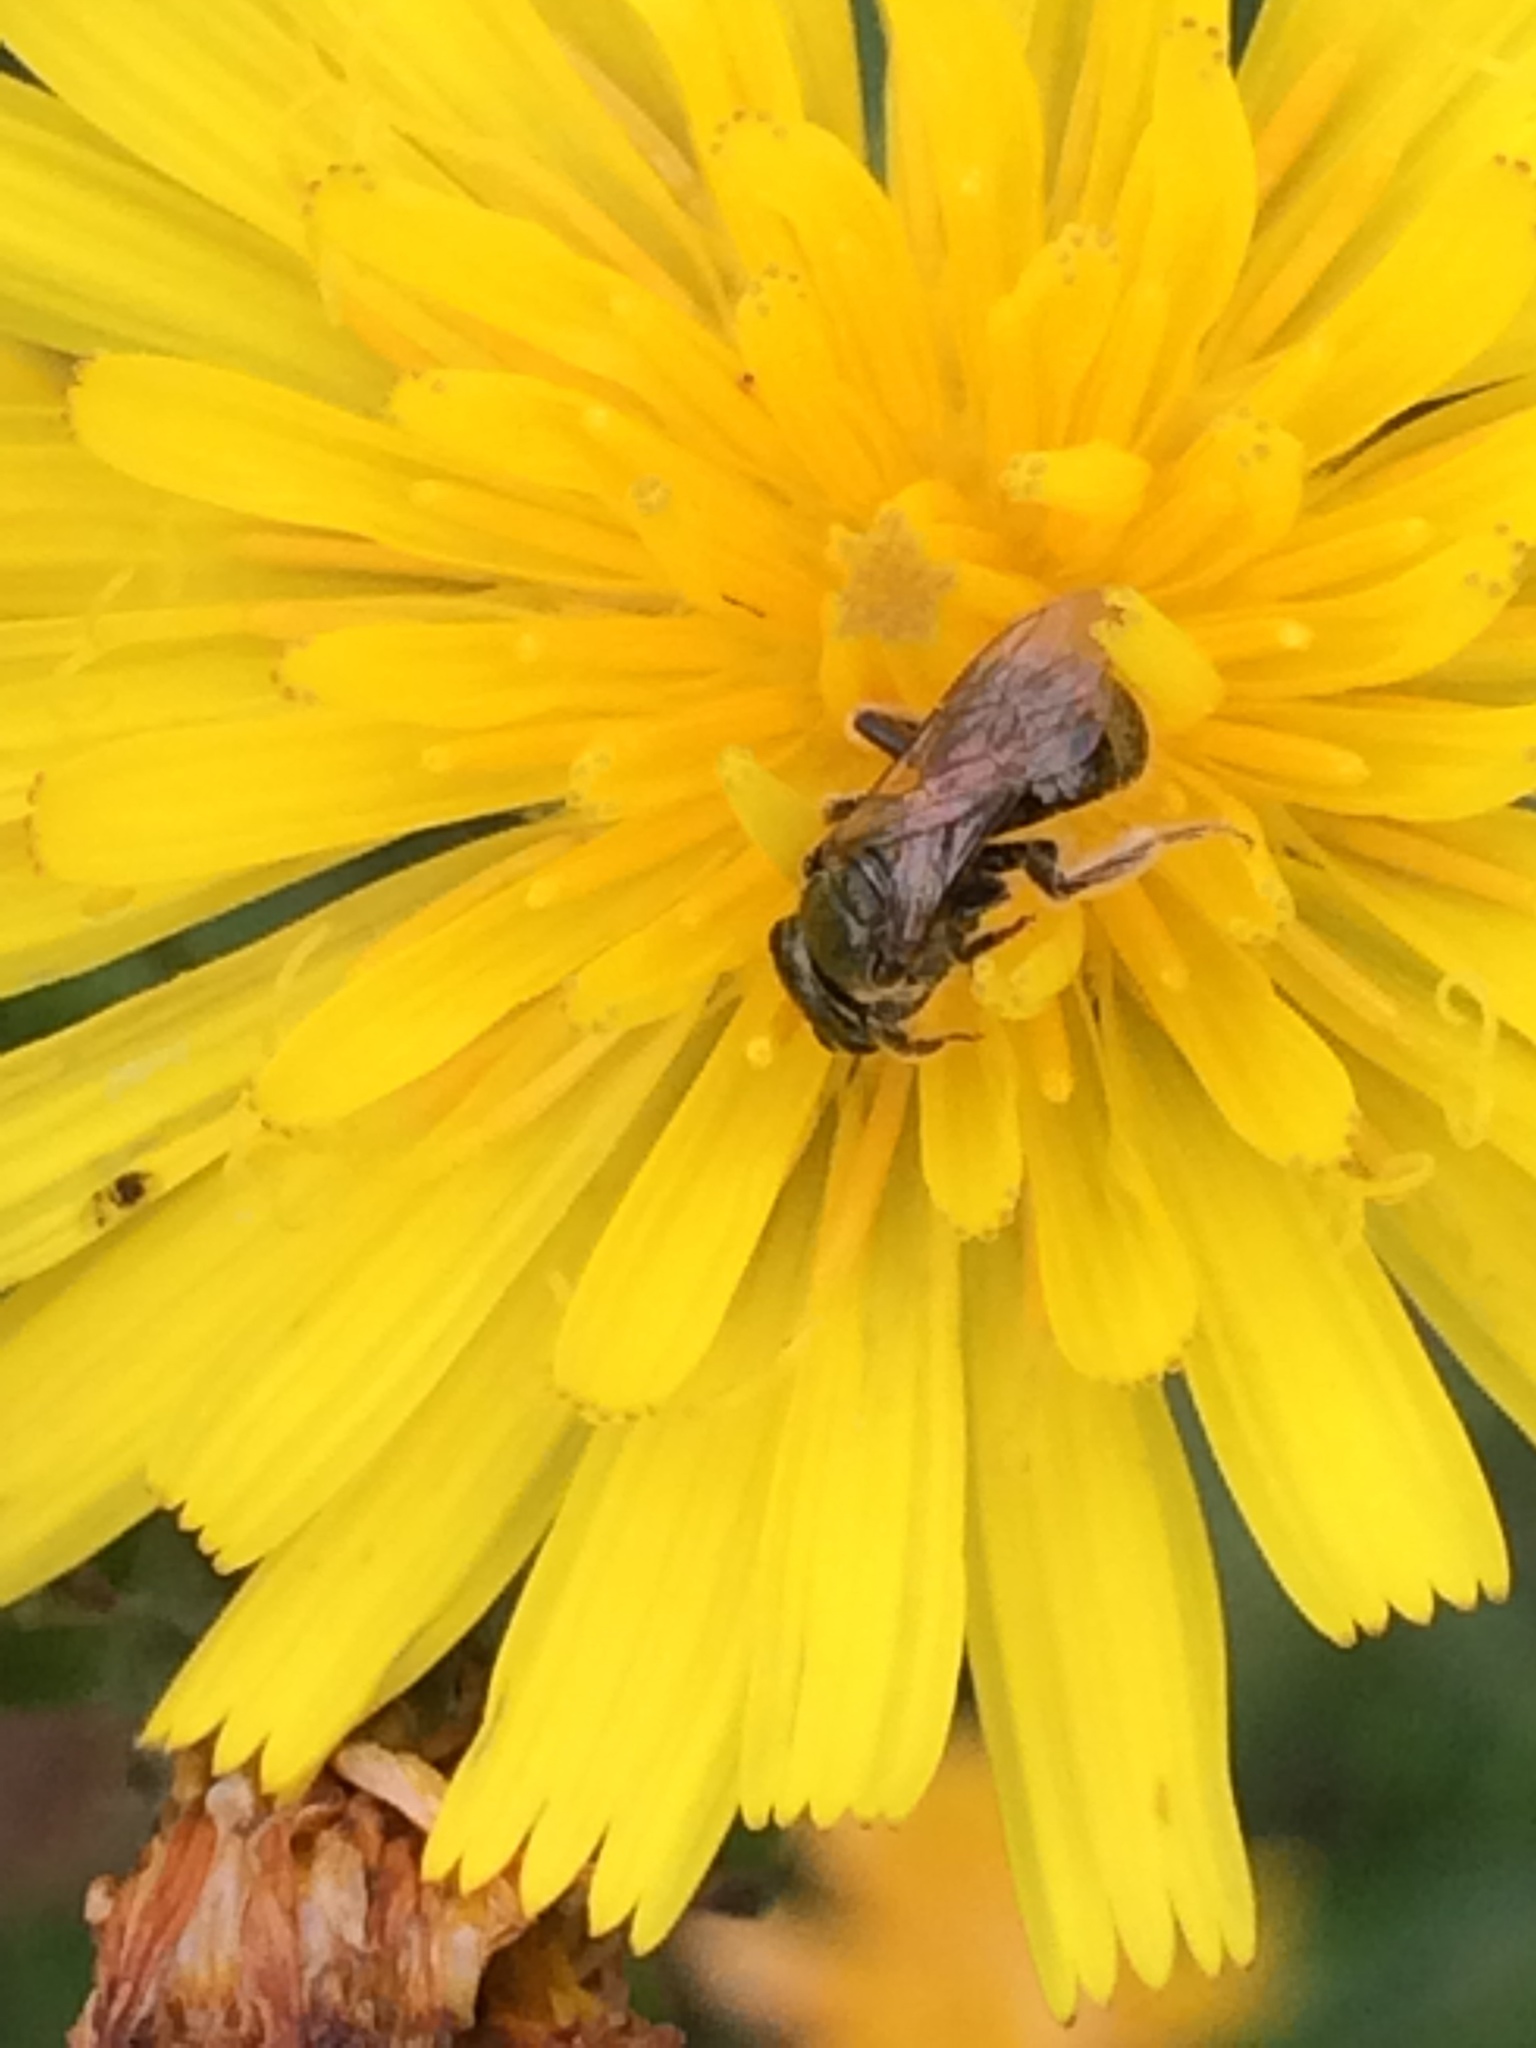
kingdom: Animalia
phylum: Arthropoda
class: Insecta
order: Hymenoptera
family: Halictidae
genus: Dialictus
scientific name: Dialictus
